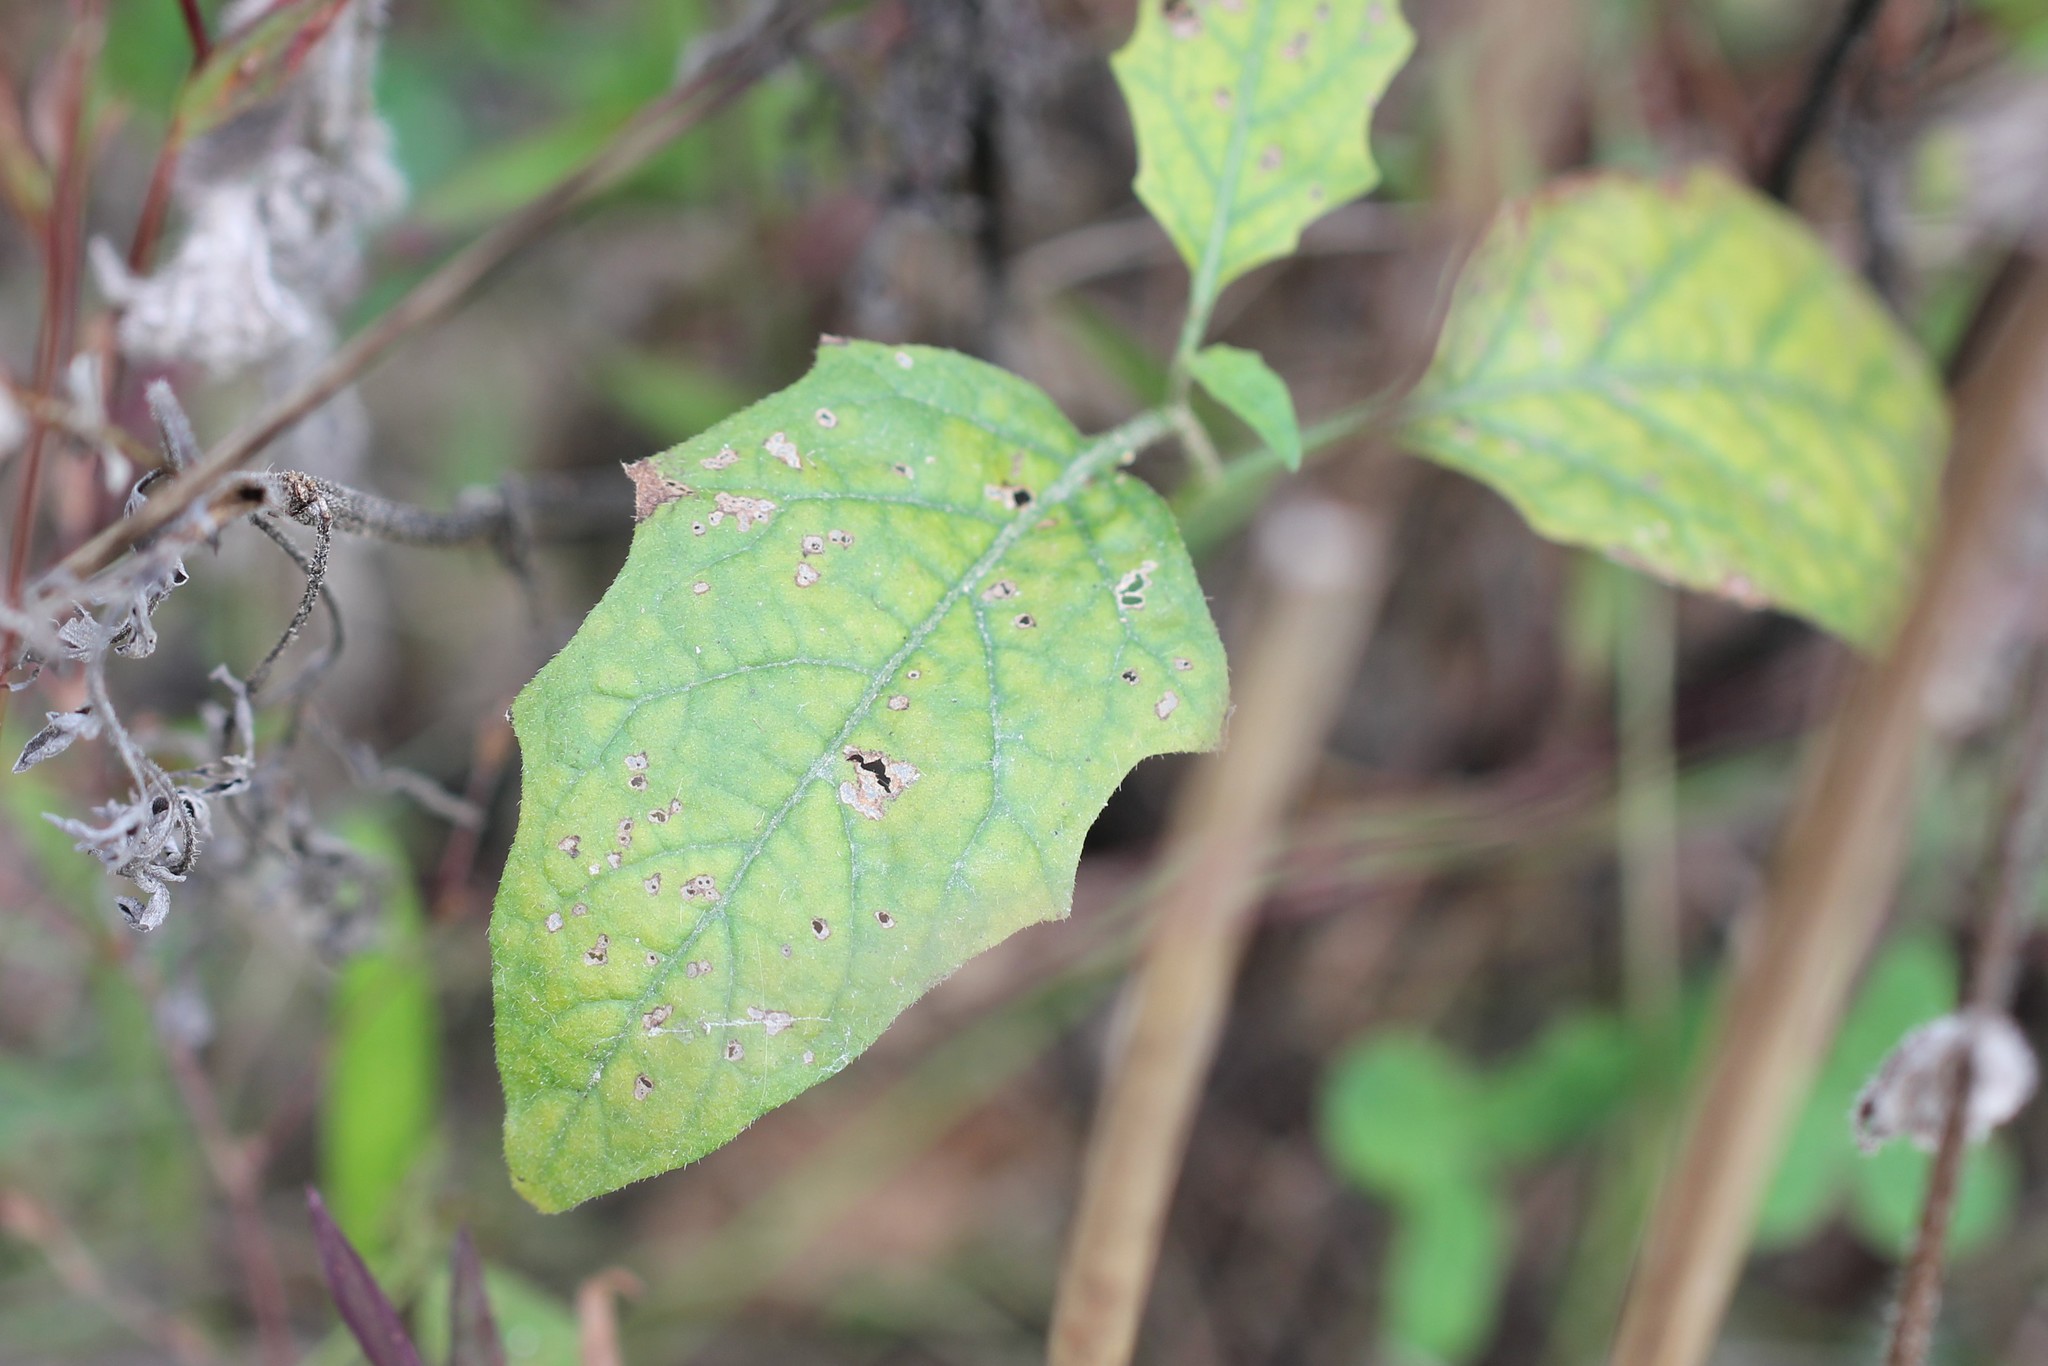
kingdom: Plantae
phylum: Tracheophyta
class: Magnoliopsida
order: Solanales
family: Solanaceae
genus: Solanum
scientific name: Solanum carolinense
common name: Horse-nettle
